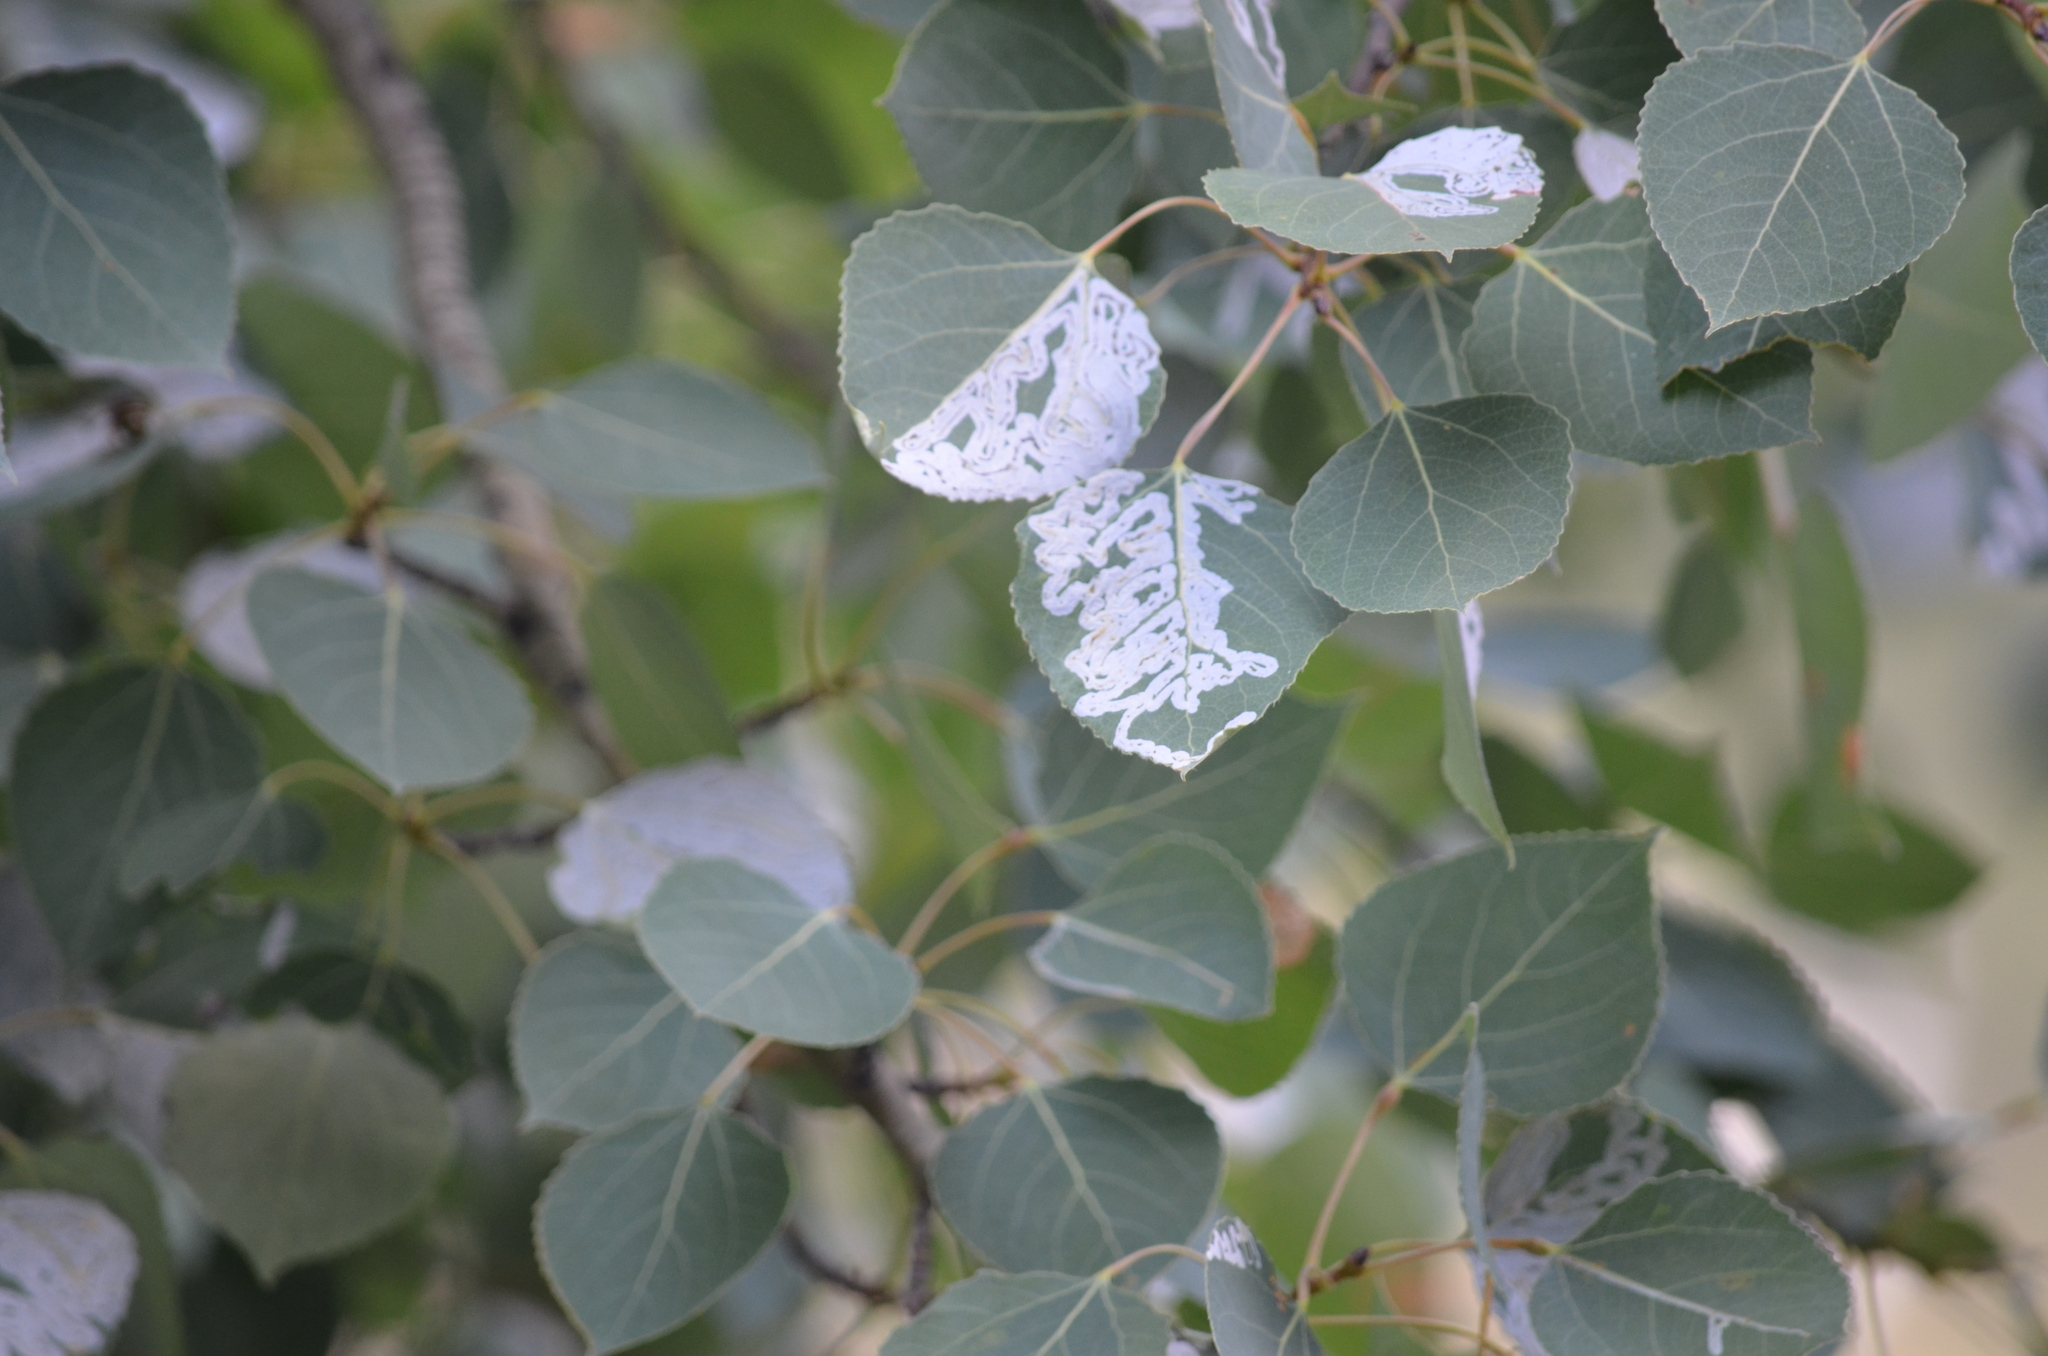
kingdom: Animalia
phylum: Arthropoda
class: Insecta
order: Lepidoptera
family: Gracillariidae
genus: Phyllocnistis
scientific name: Phyllocnistis populiella
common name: Aspen serpentine leafminer moth
